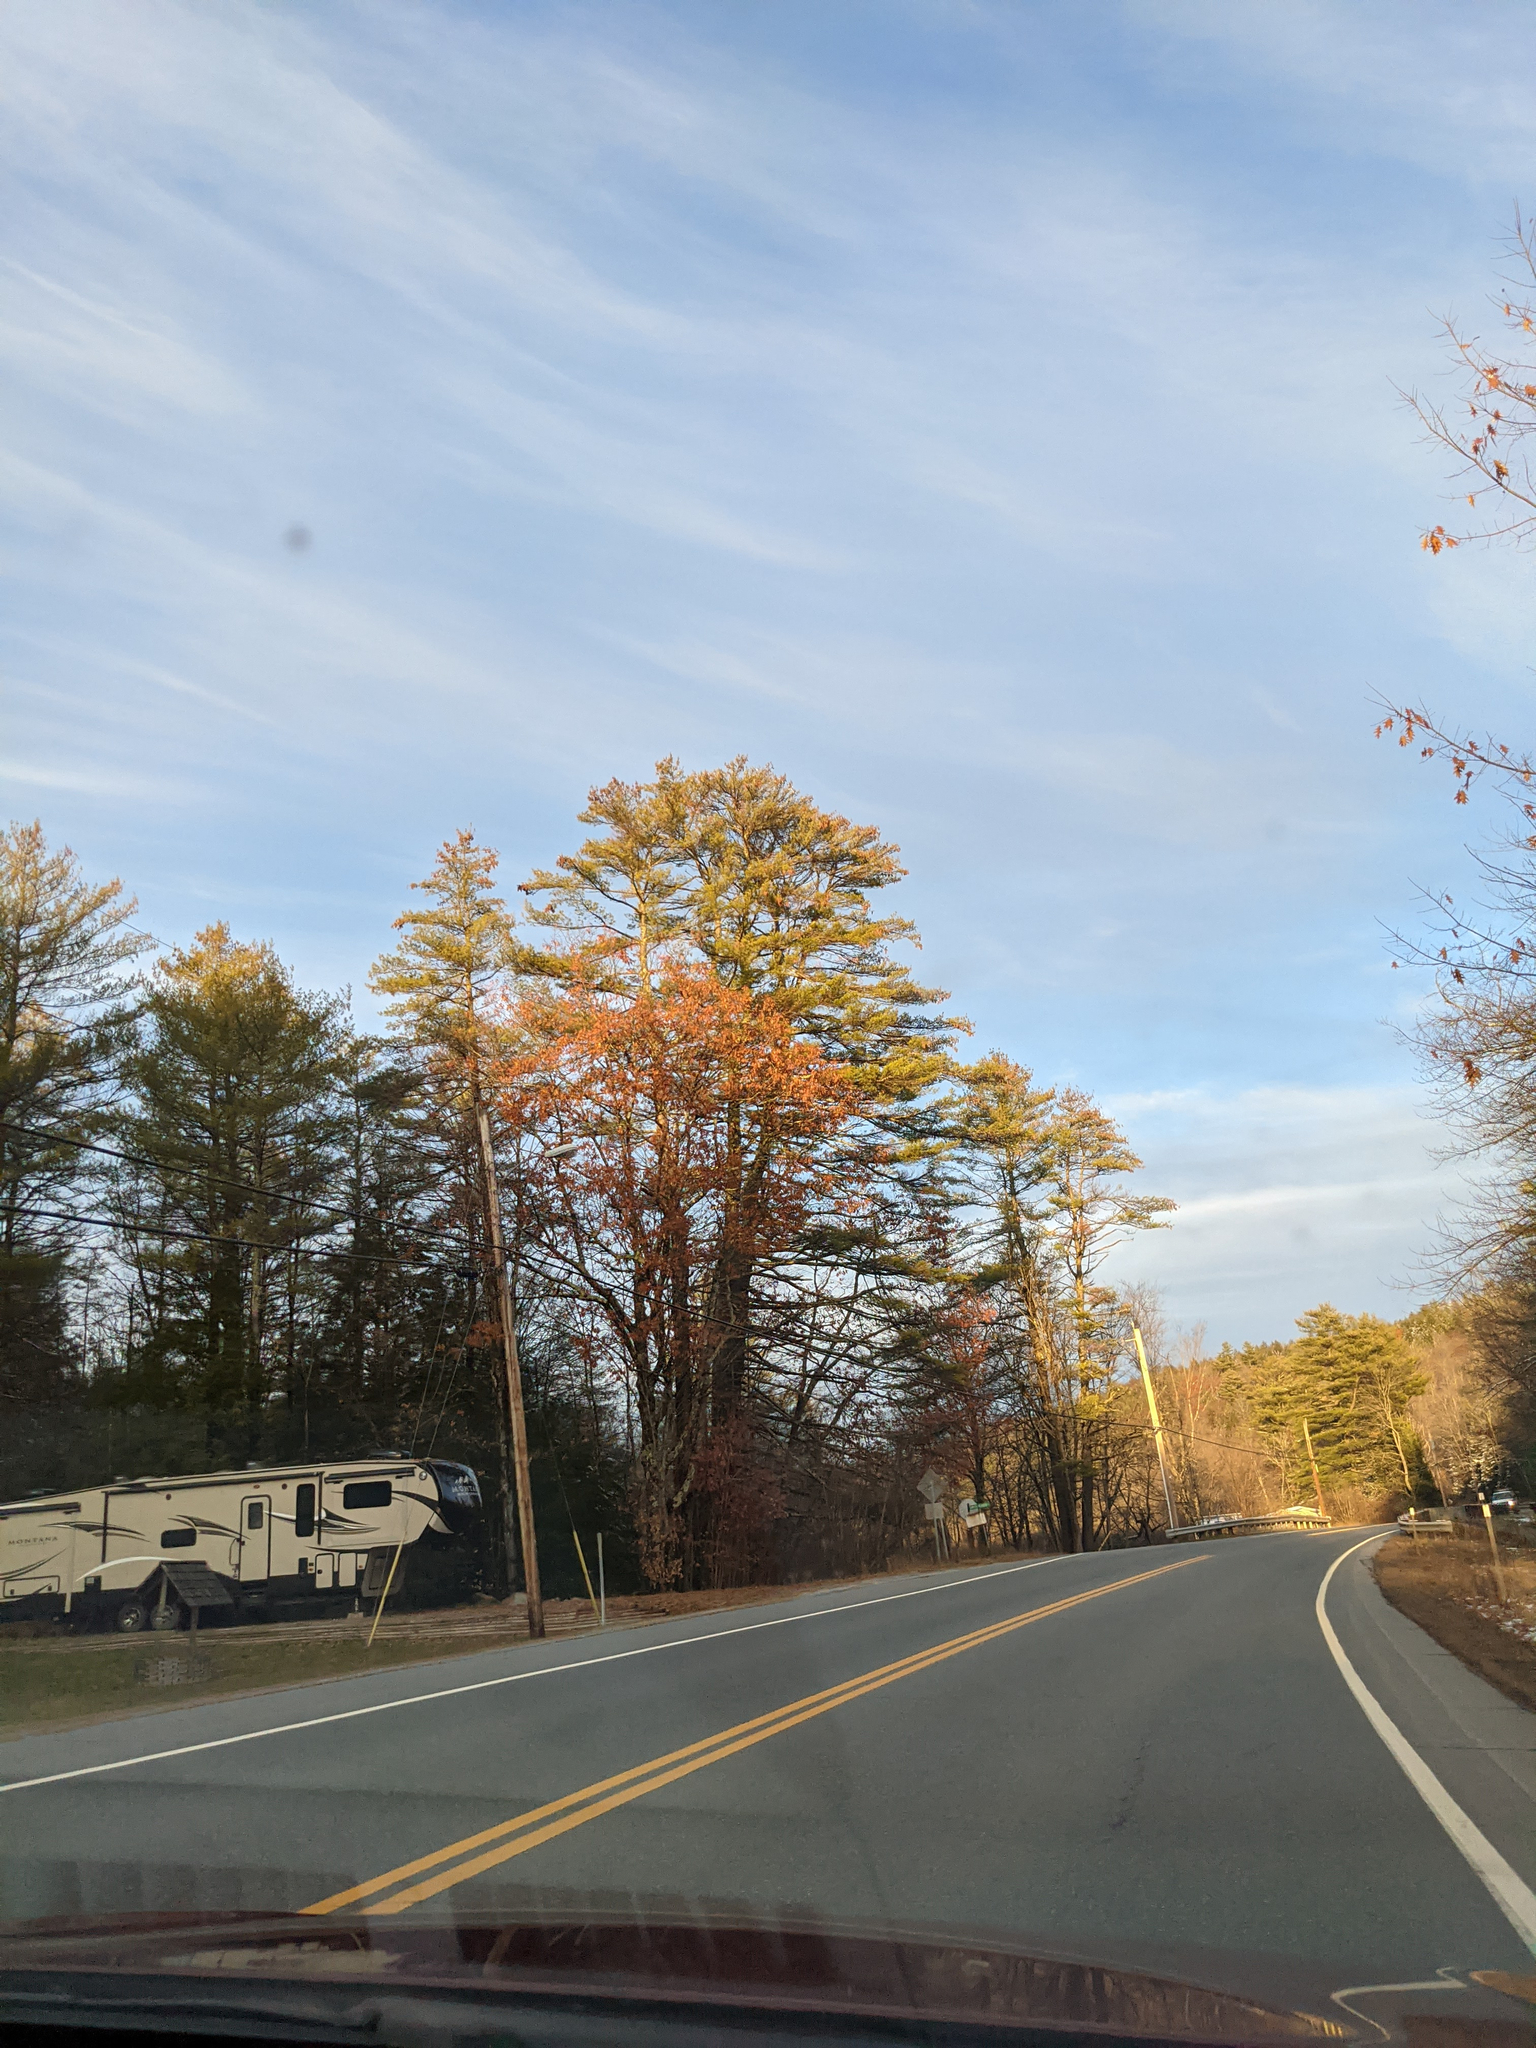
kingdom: Plantae
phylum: Tracheophyta
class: Pinopsida
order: Pinales
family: Pinaceae
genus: Pinus
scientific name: Pinus strobus
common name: Weymouth pine
